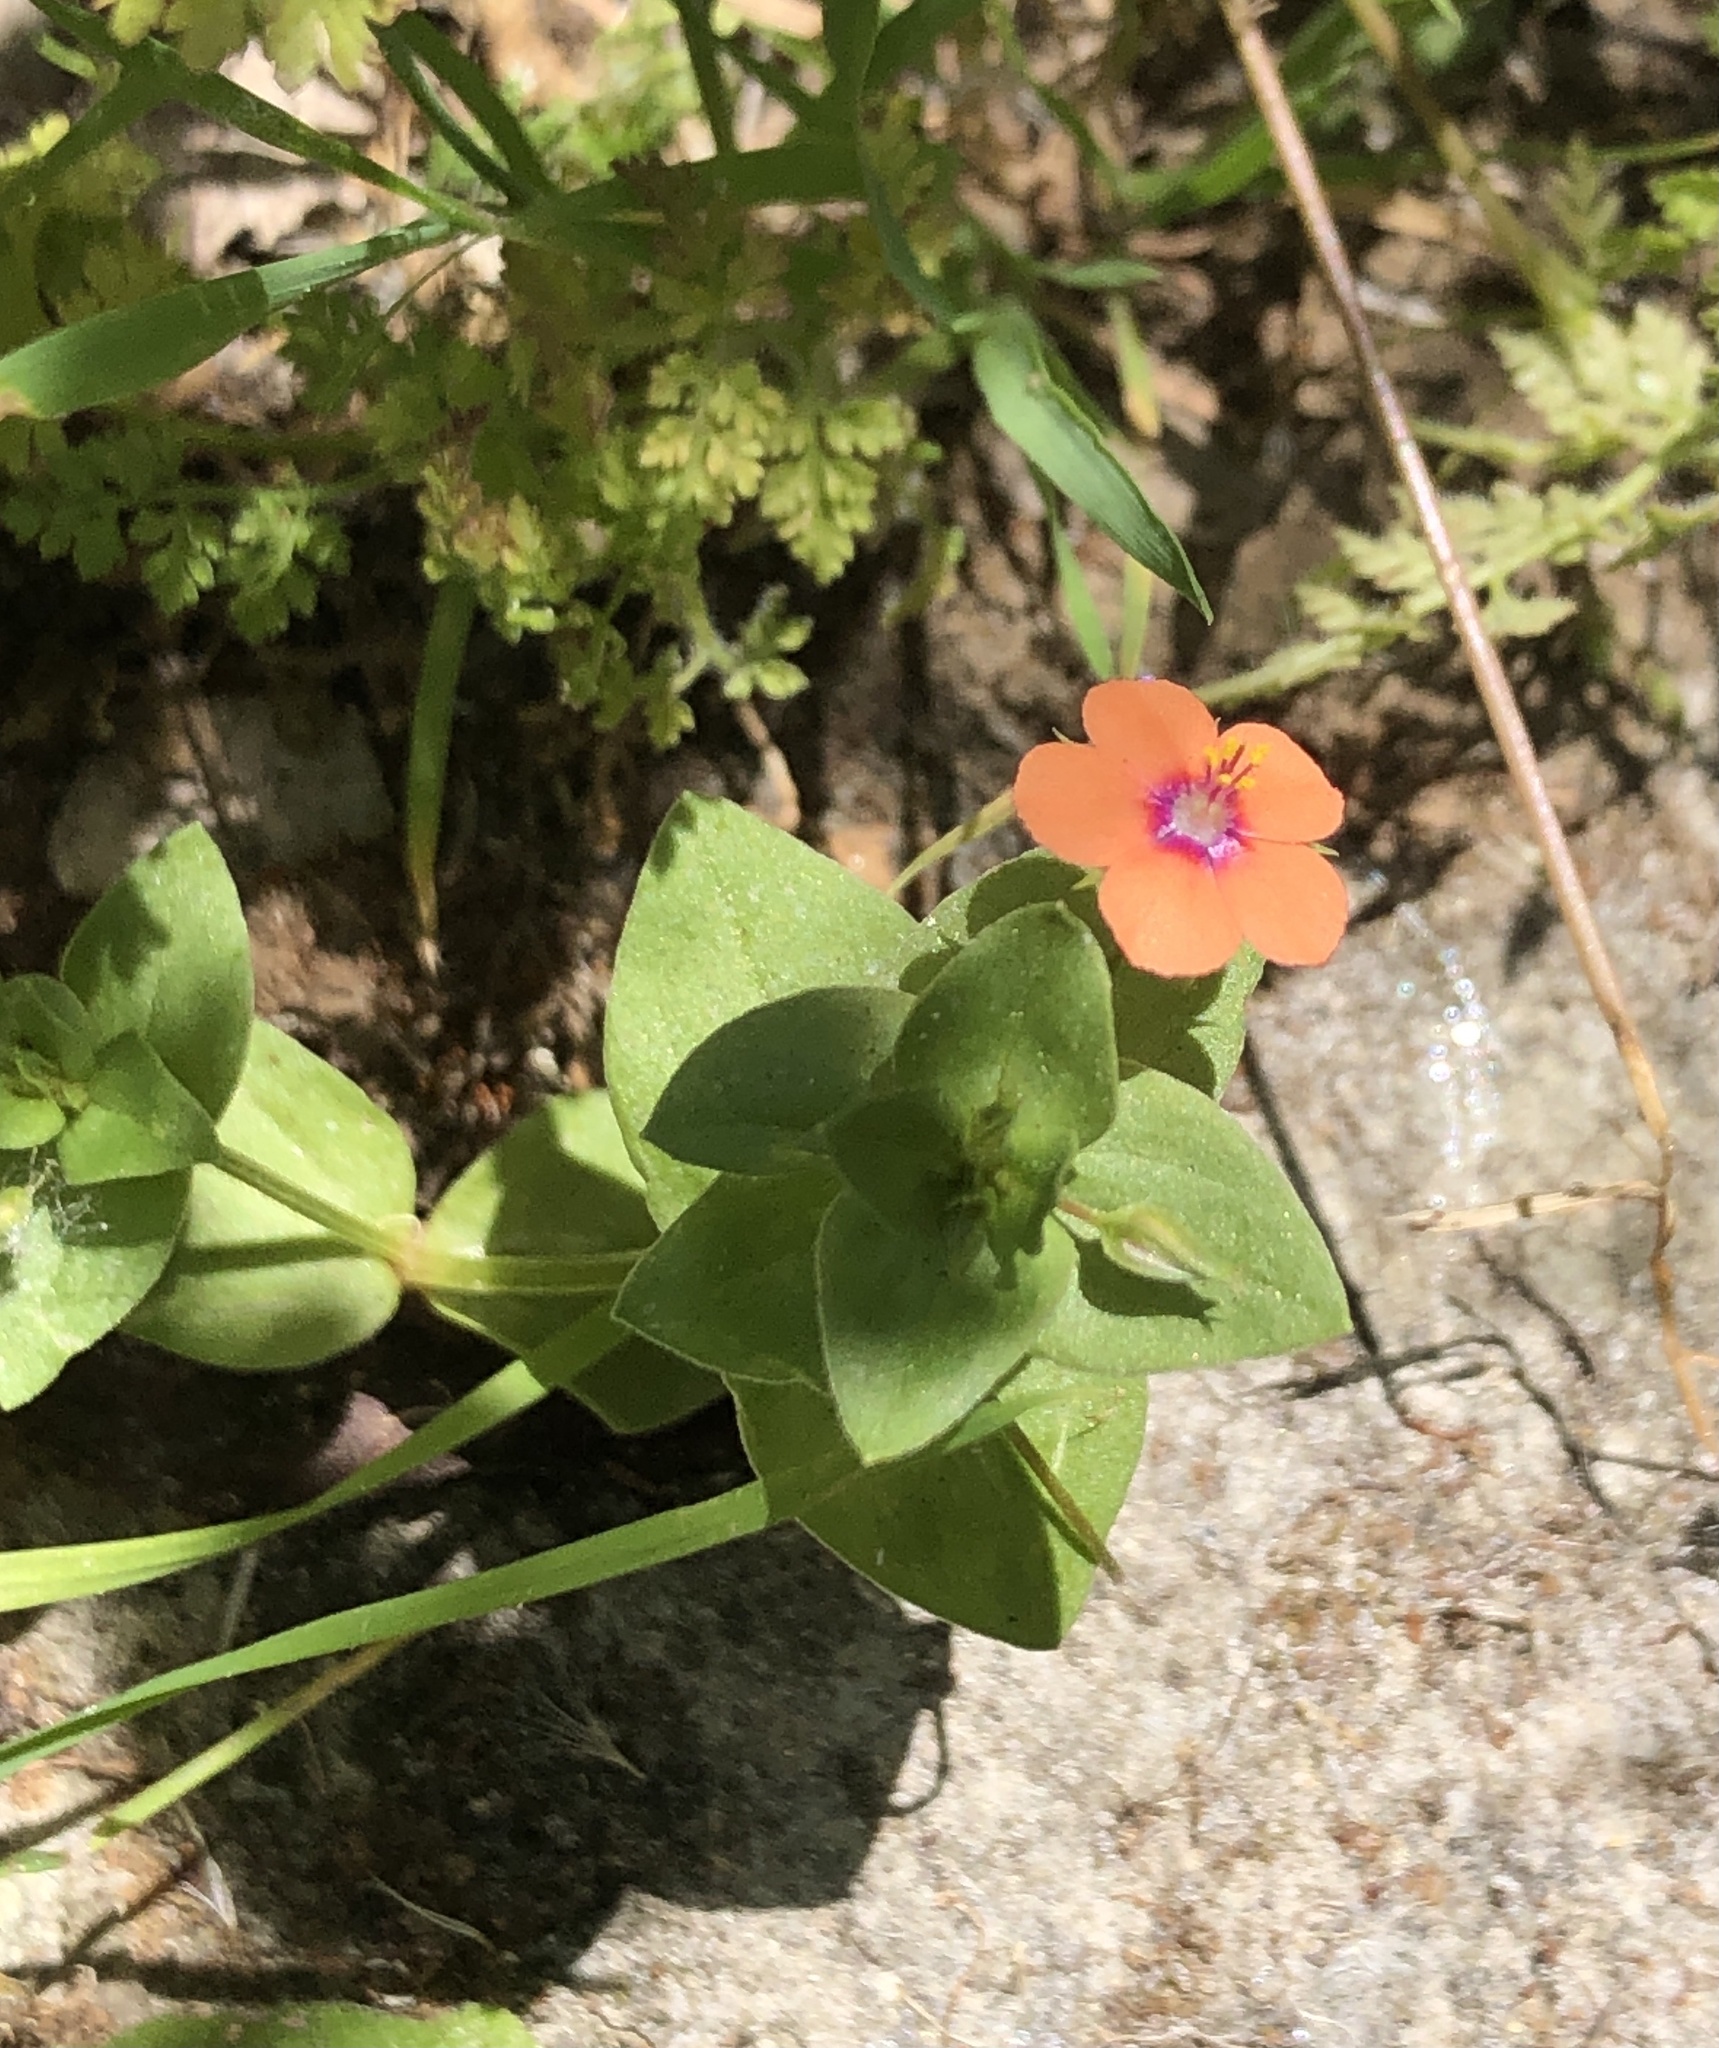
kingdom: Plantae
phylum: Tracheophyta
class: Magnoliopsida
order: Ericales
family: Primulaceae
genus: Lysimachia
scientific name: Lysimachia arvensis
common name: Scarlet pimpernel
